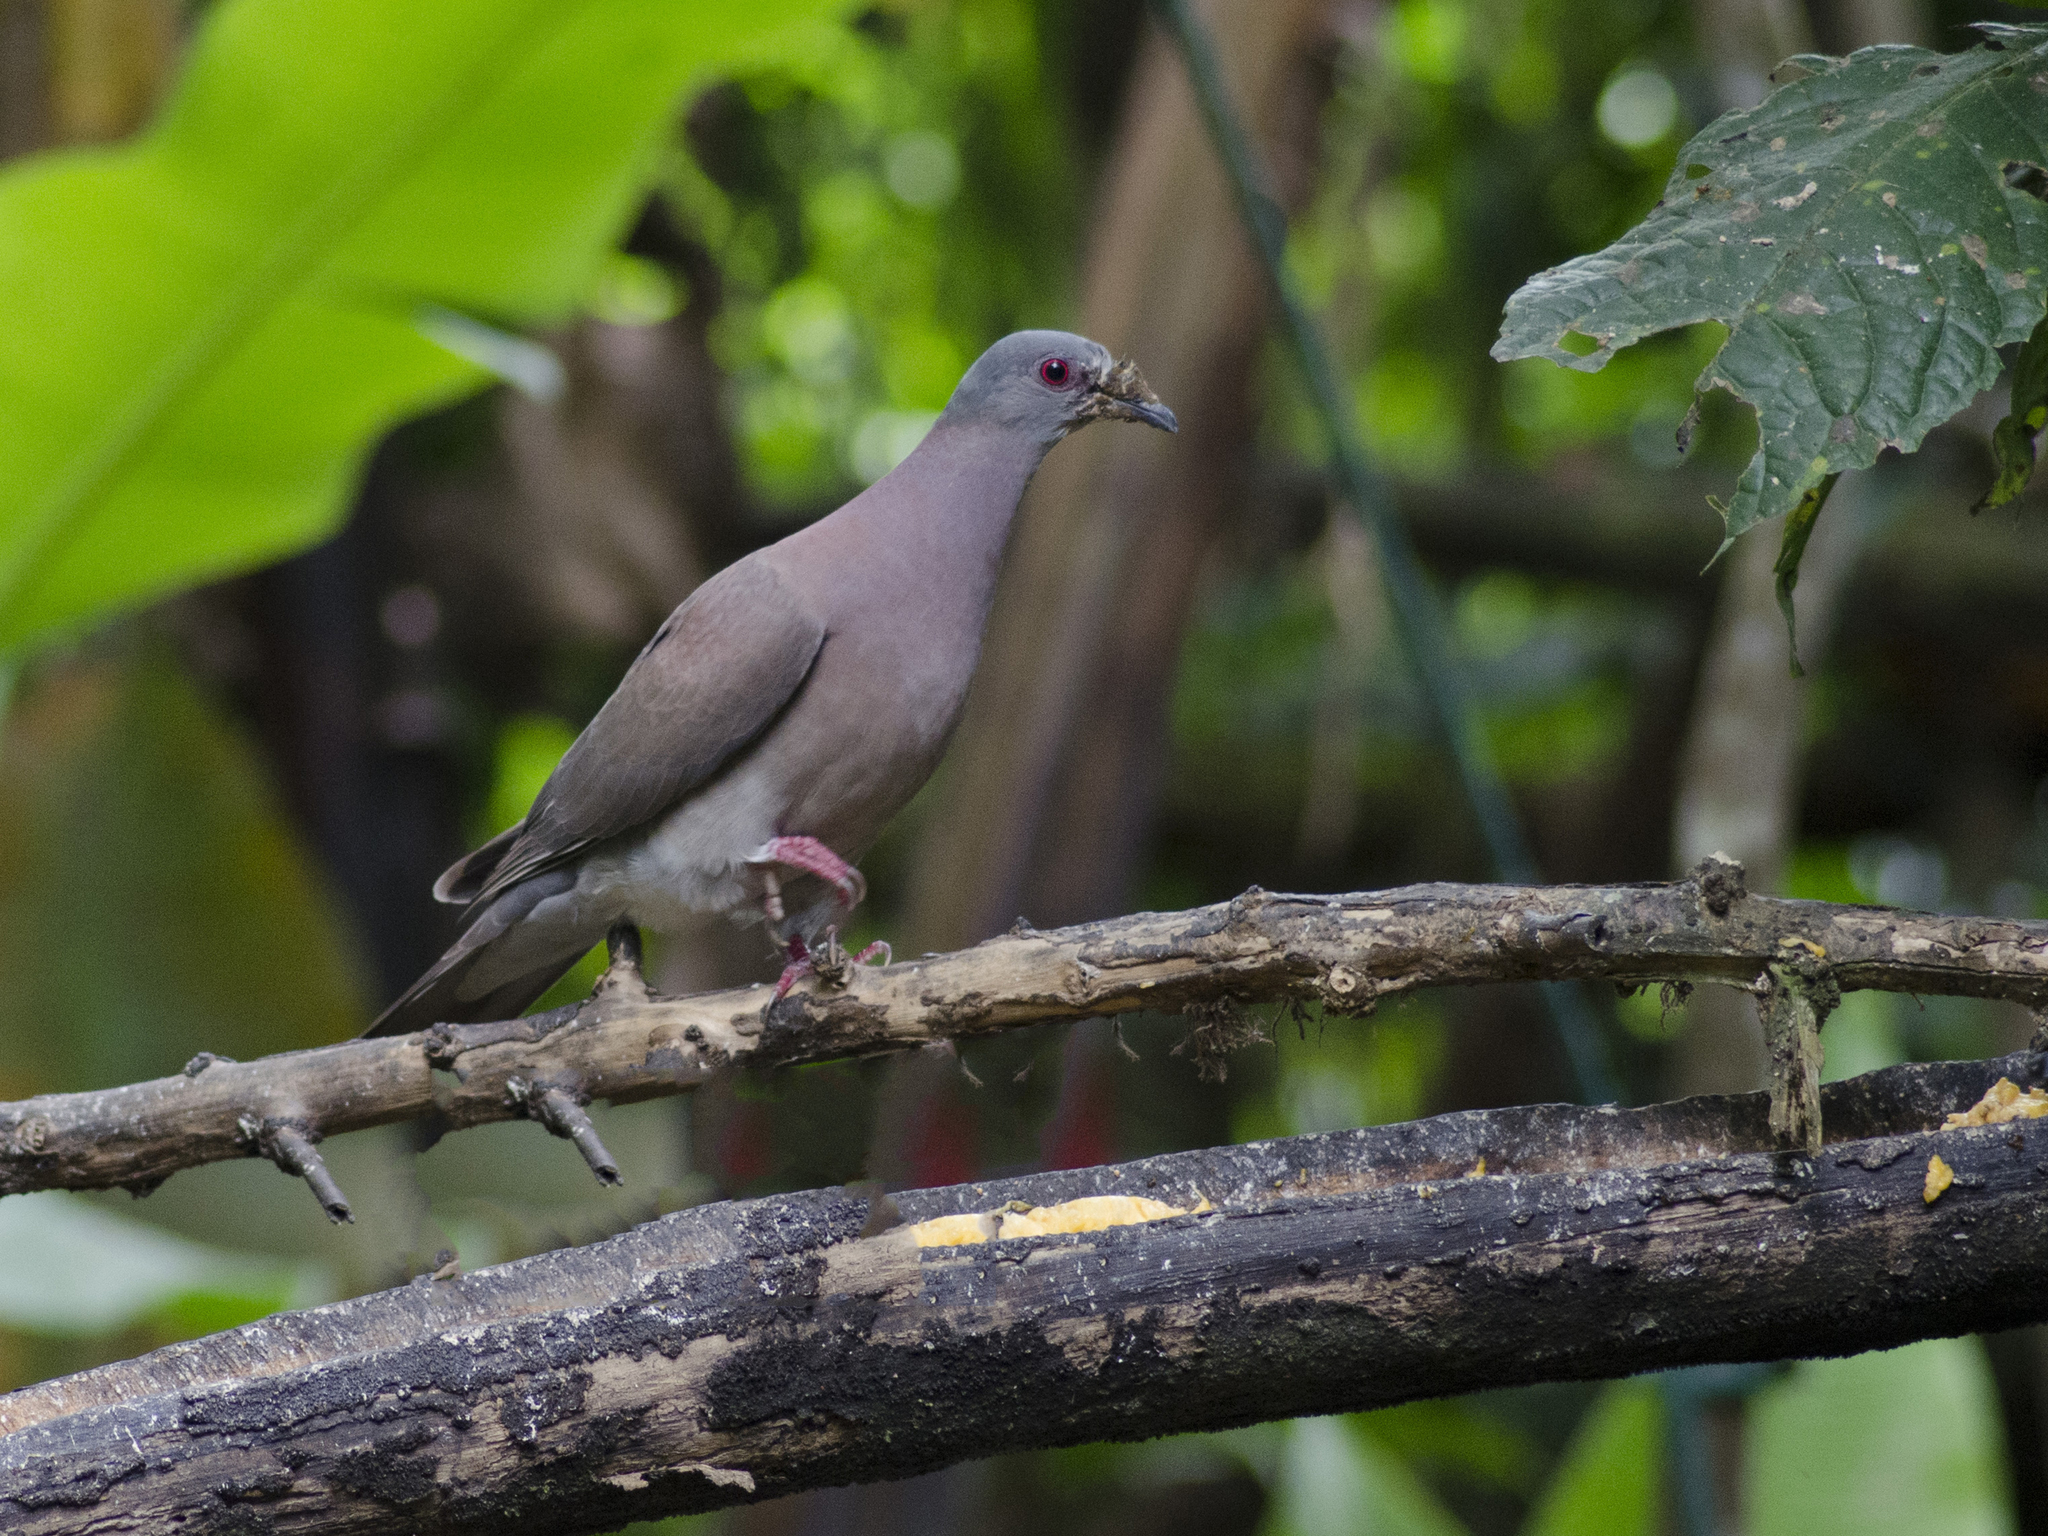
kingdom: Animalia
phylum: Chordata
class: Aves
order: Columbiformes
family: Columbidae
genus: Patagioenas
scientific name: Patagioenas cayennensis
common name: Pale-vented pigeon
